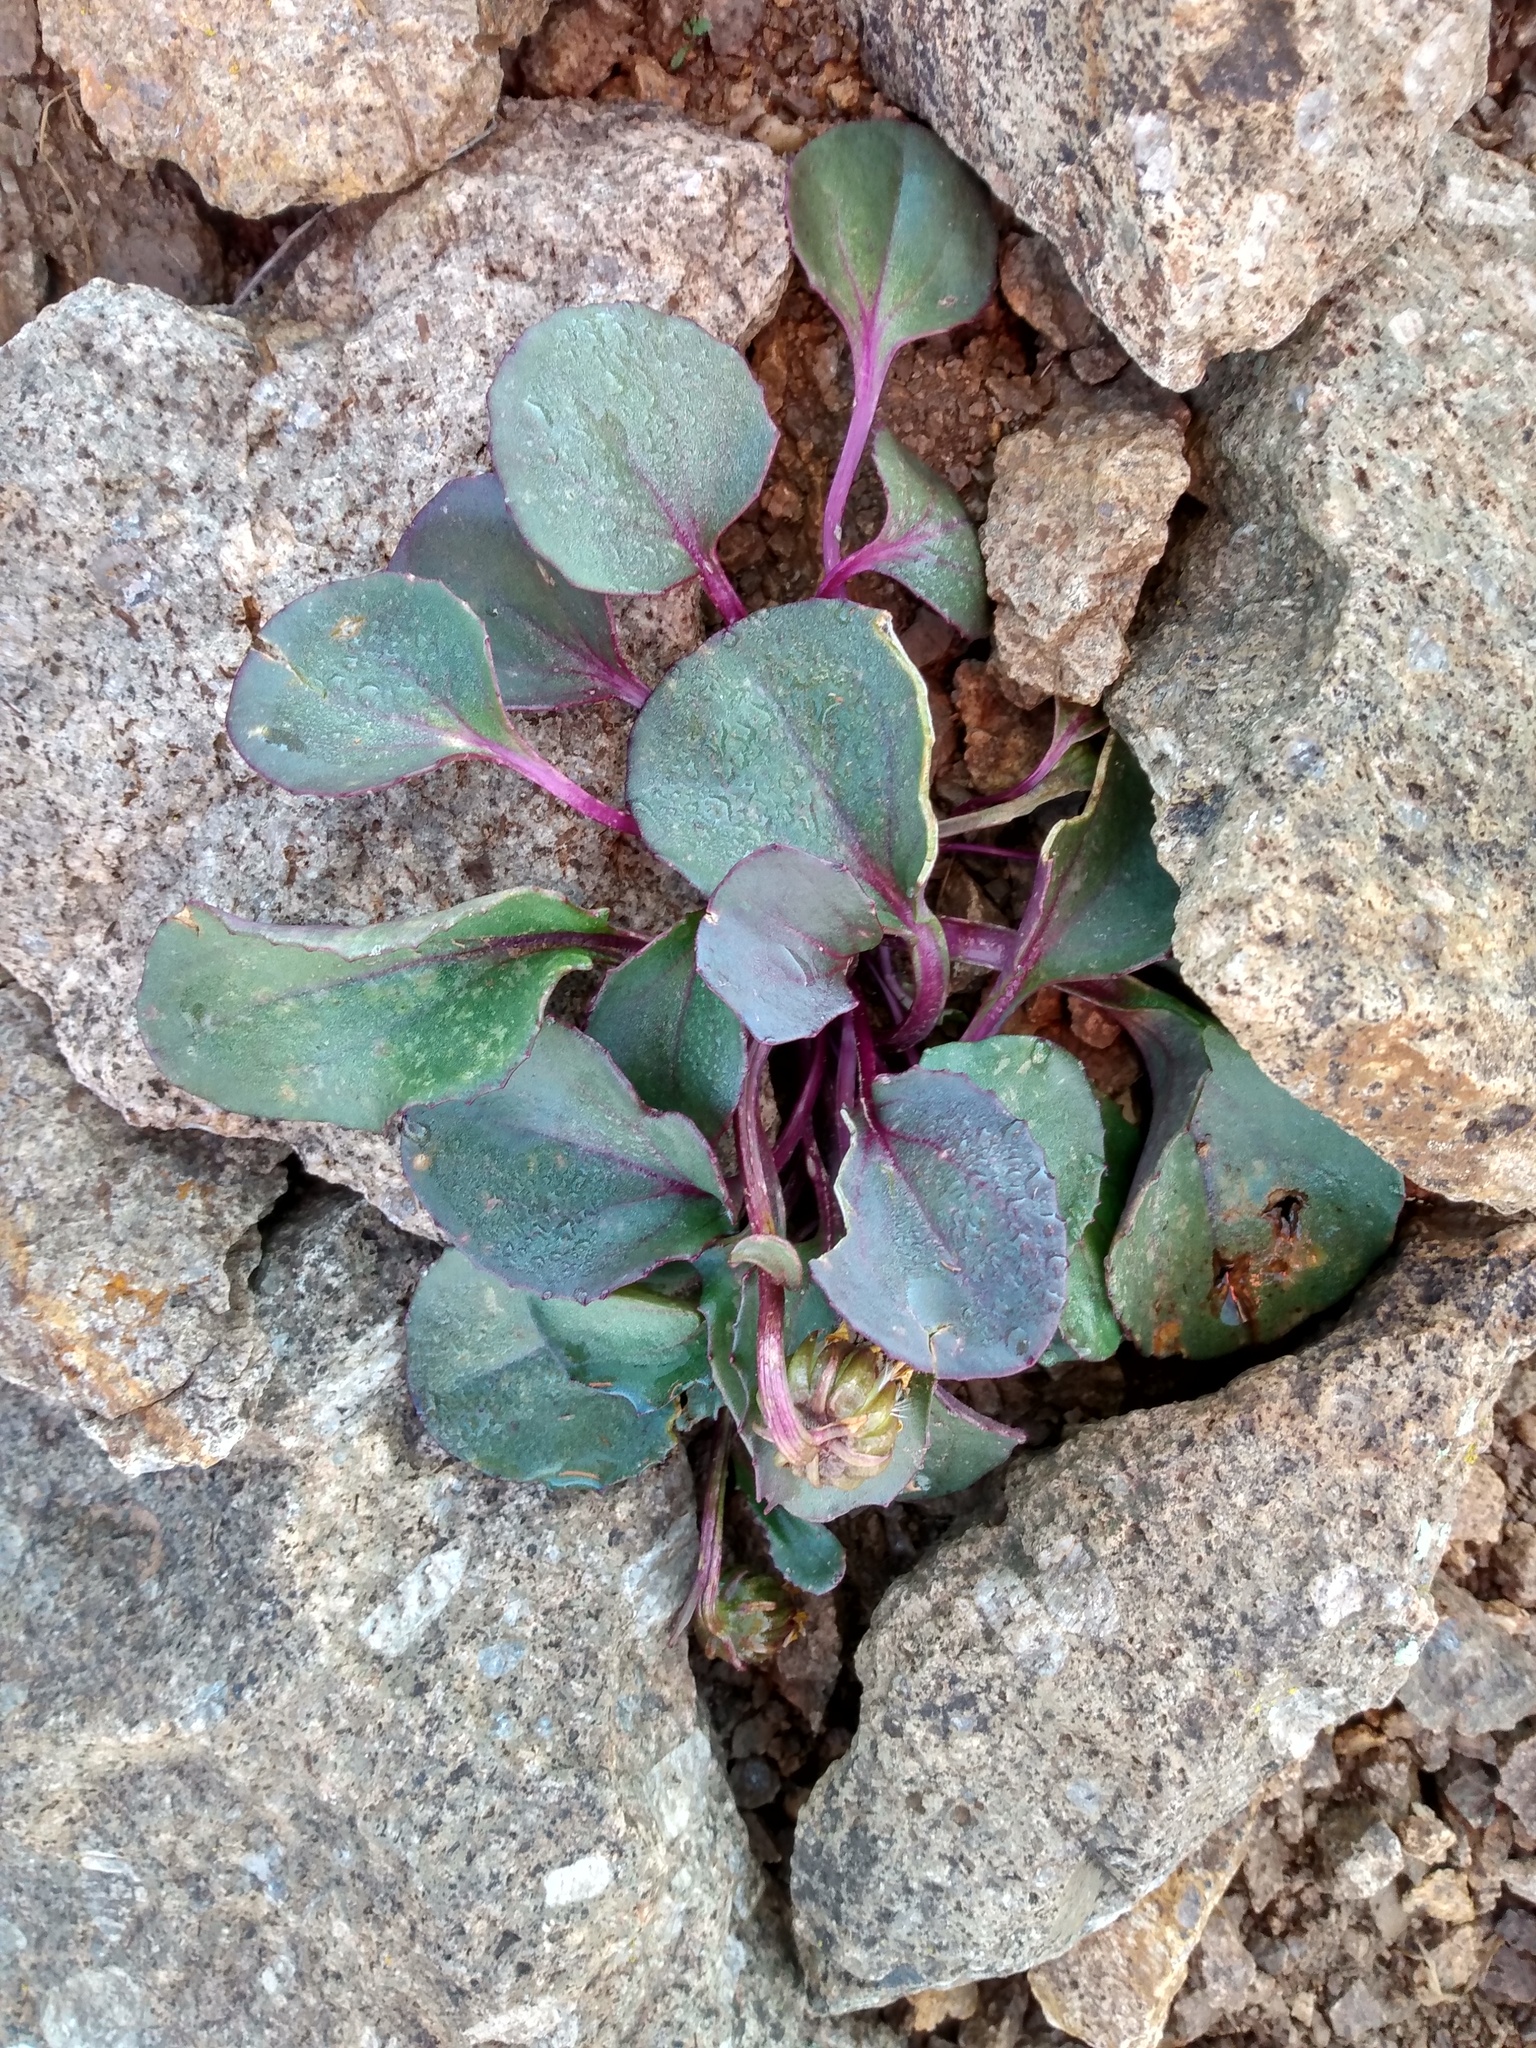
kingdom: Plantae
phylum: Tracheophyta
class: Magnoliopsida
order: Asterales
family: Asteraceae
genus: Senecio
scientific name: Senecio soldanella
